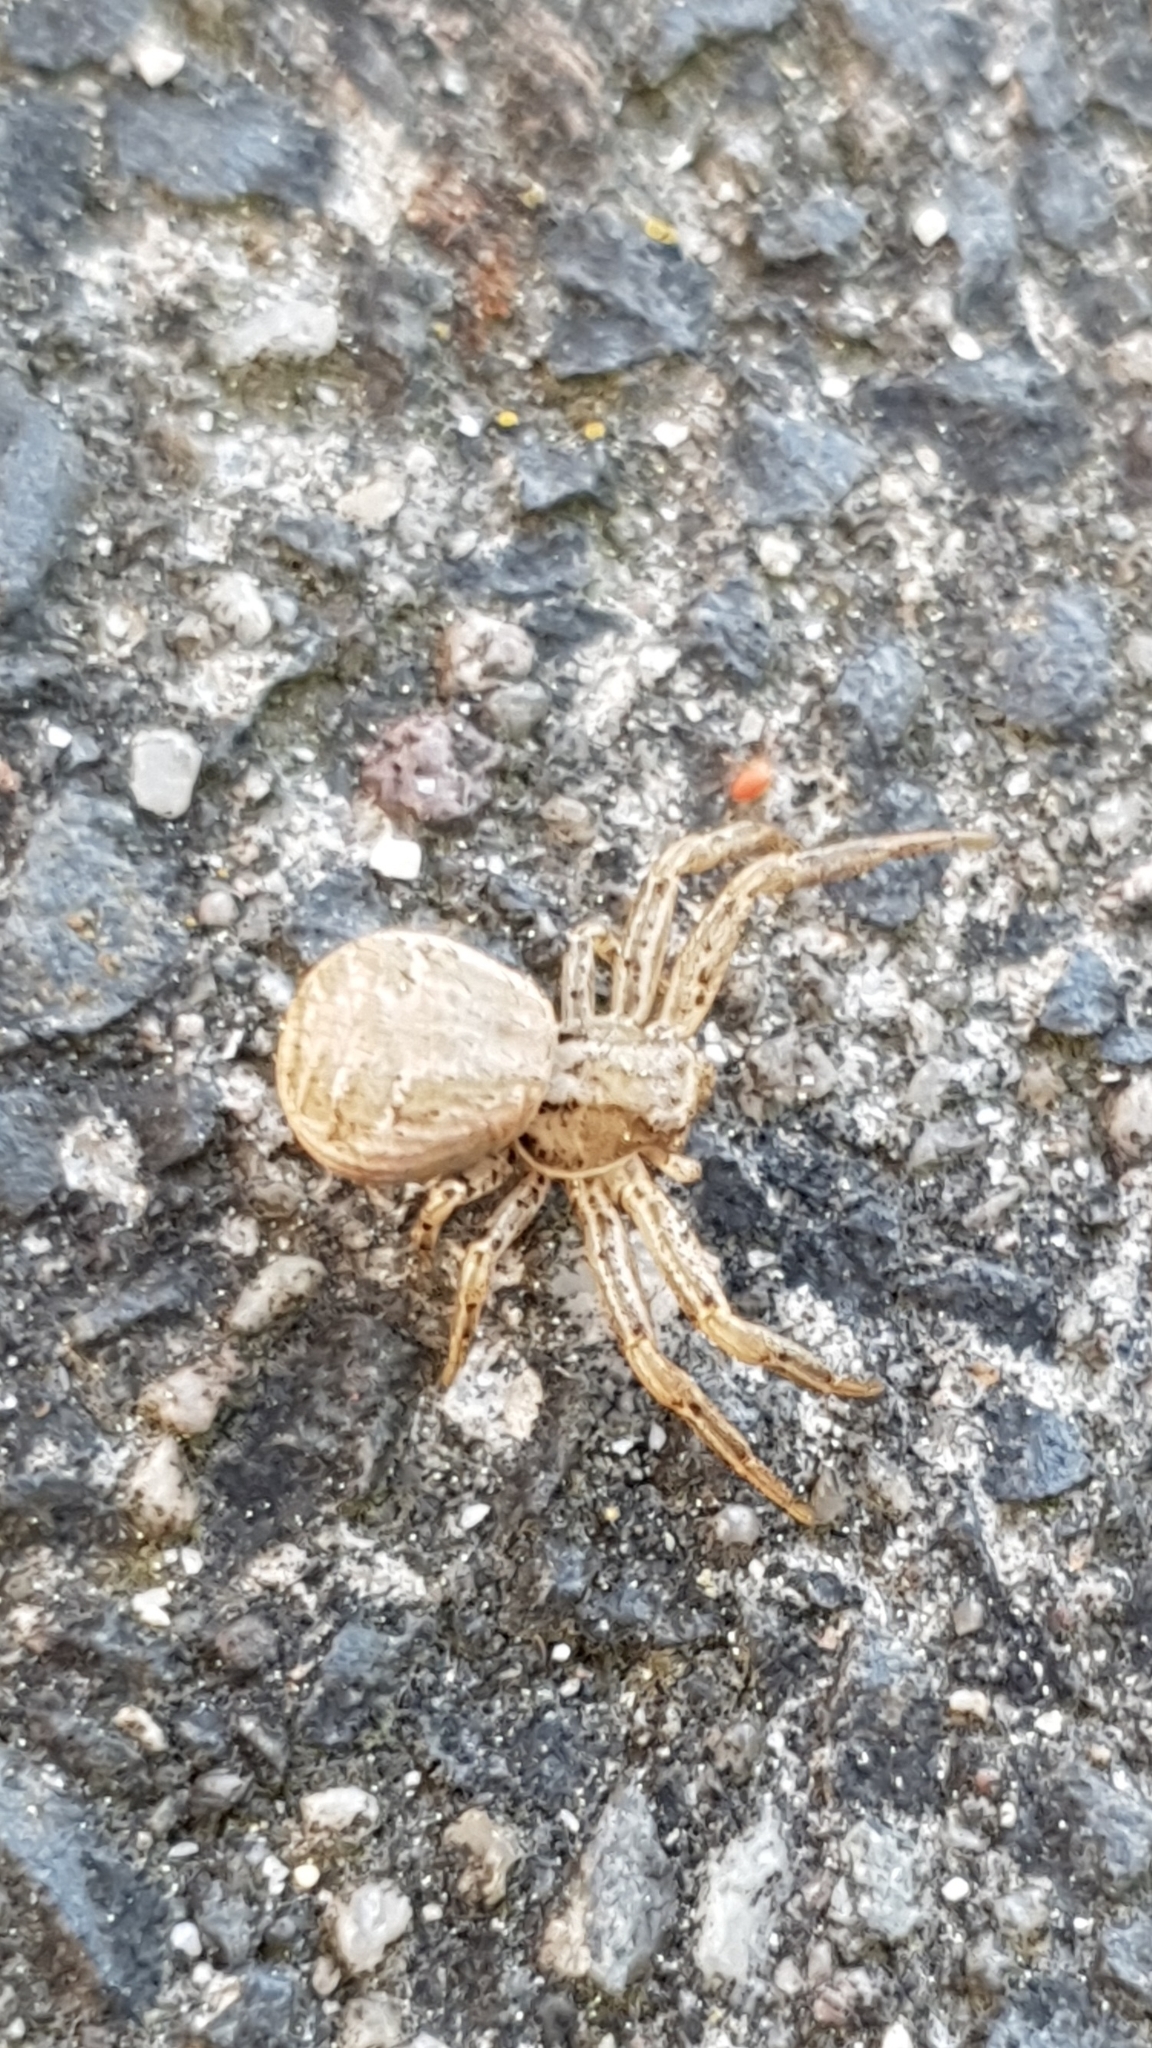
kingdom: Animalia
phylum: Arthropoda
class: Arachnida
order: Araneae
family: Thomisidae
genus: Xysticus
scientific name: Xysticus
